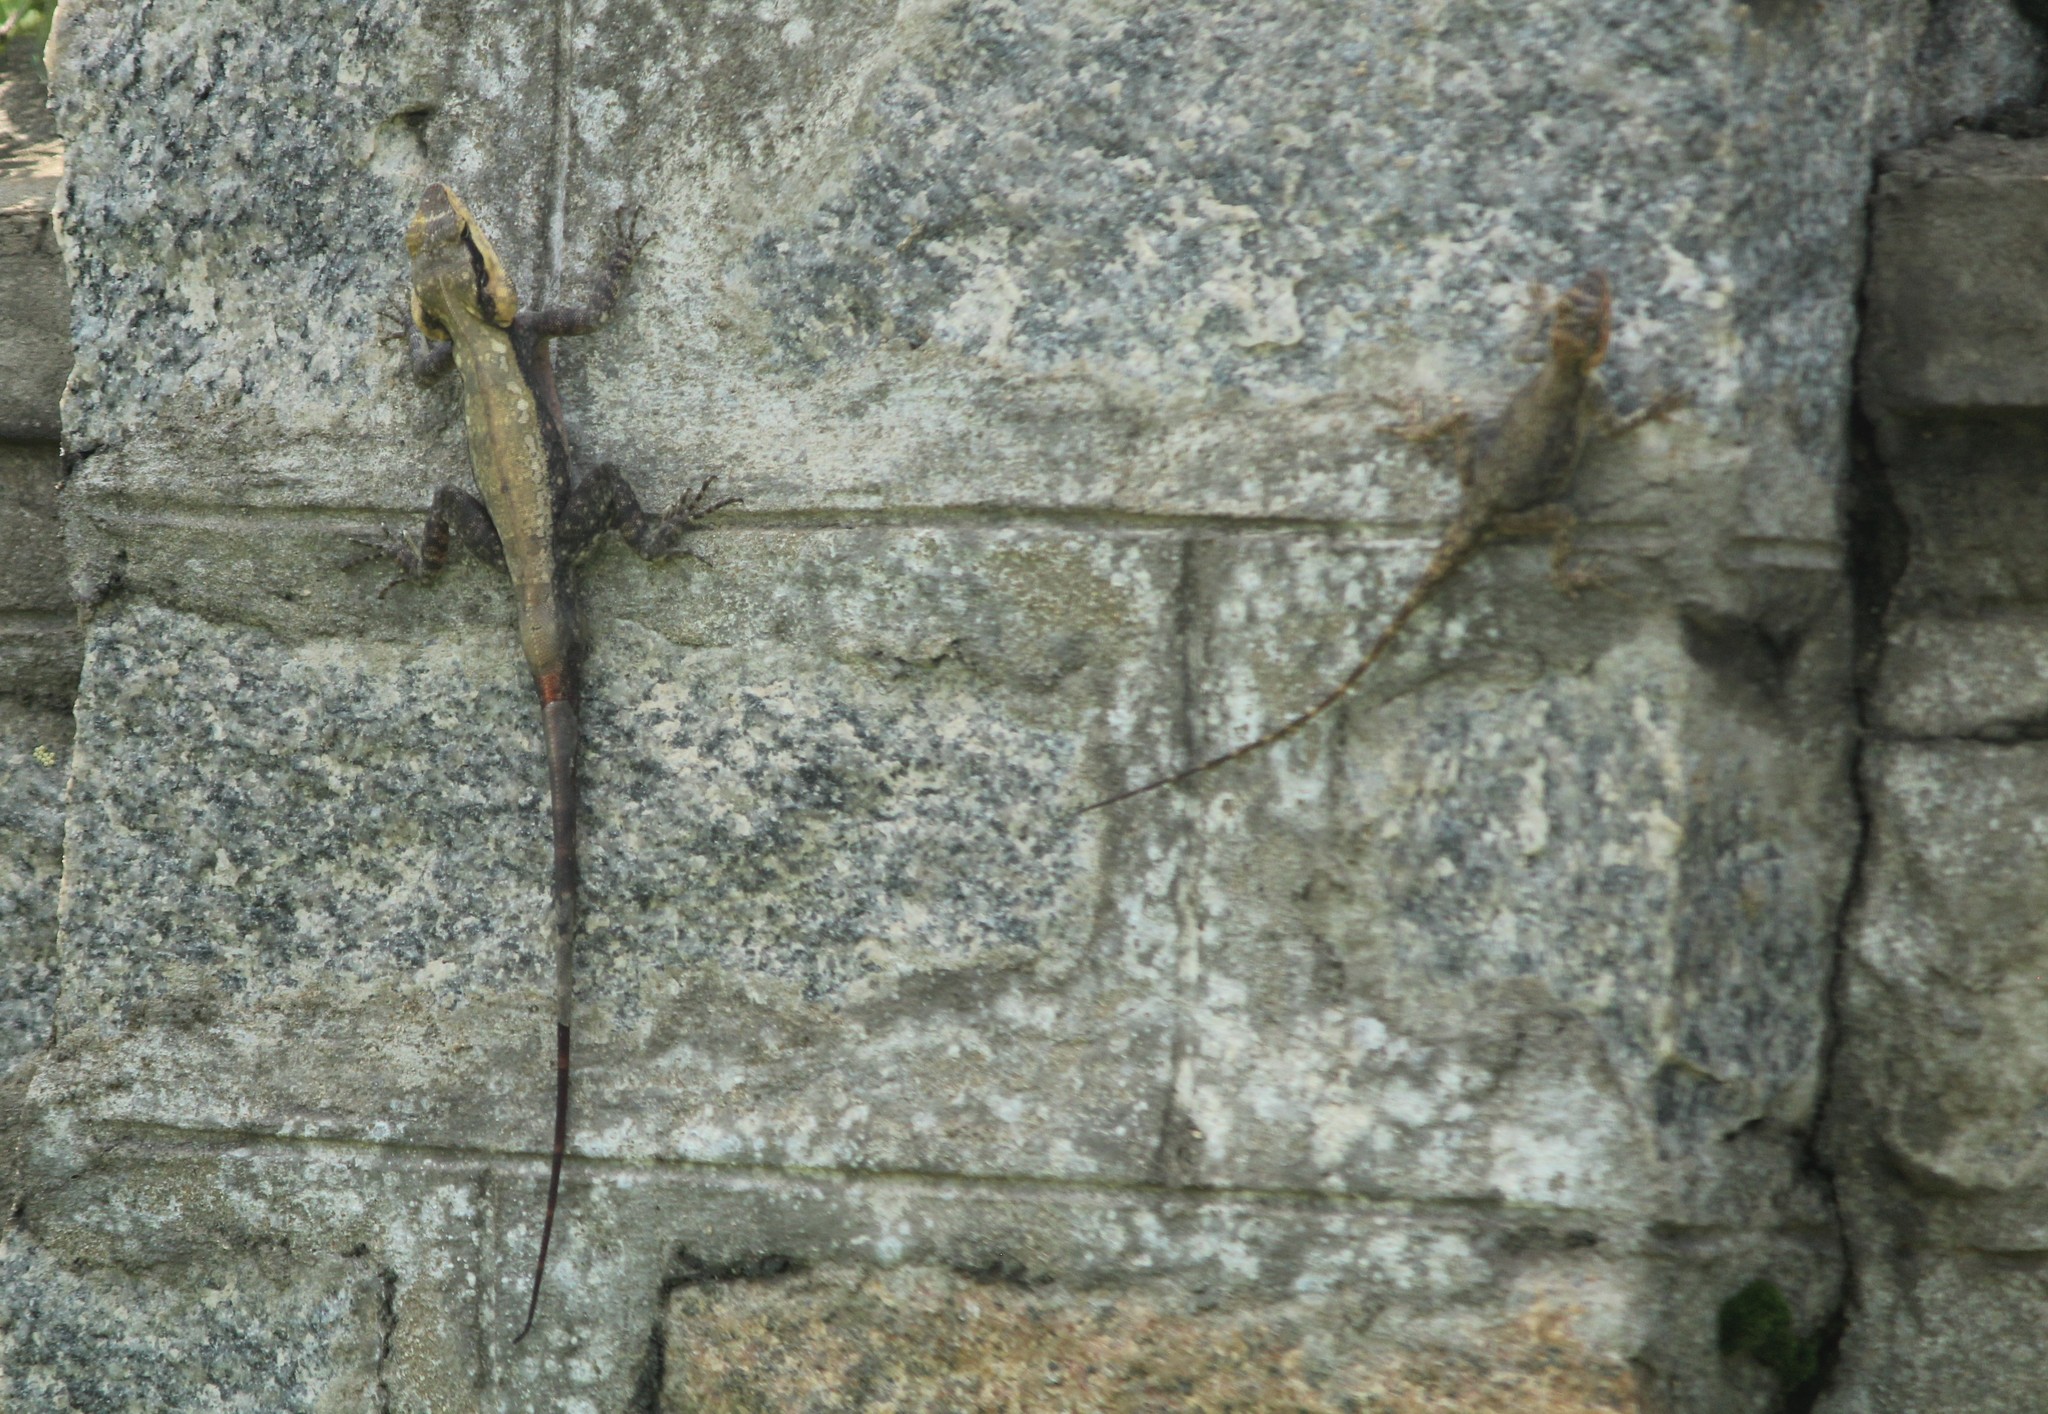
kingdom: Animalia
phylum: Chordata
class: Squamata
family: Agamidae
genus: Psammophilus
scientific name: Psammophilus dorsalis
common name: South indian rock agama
